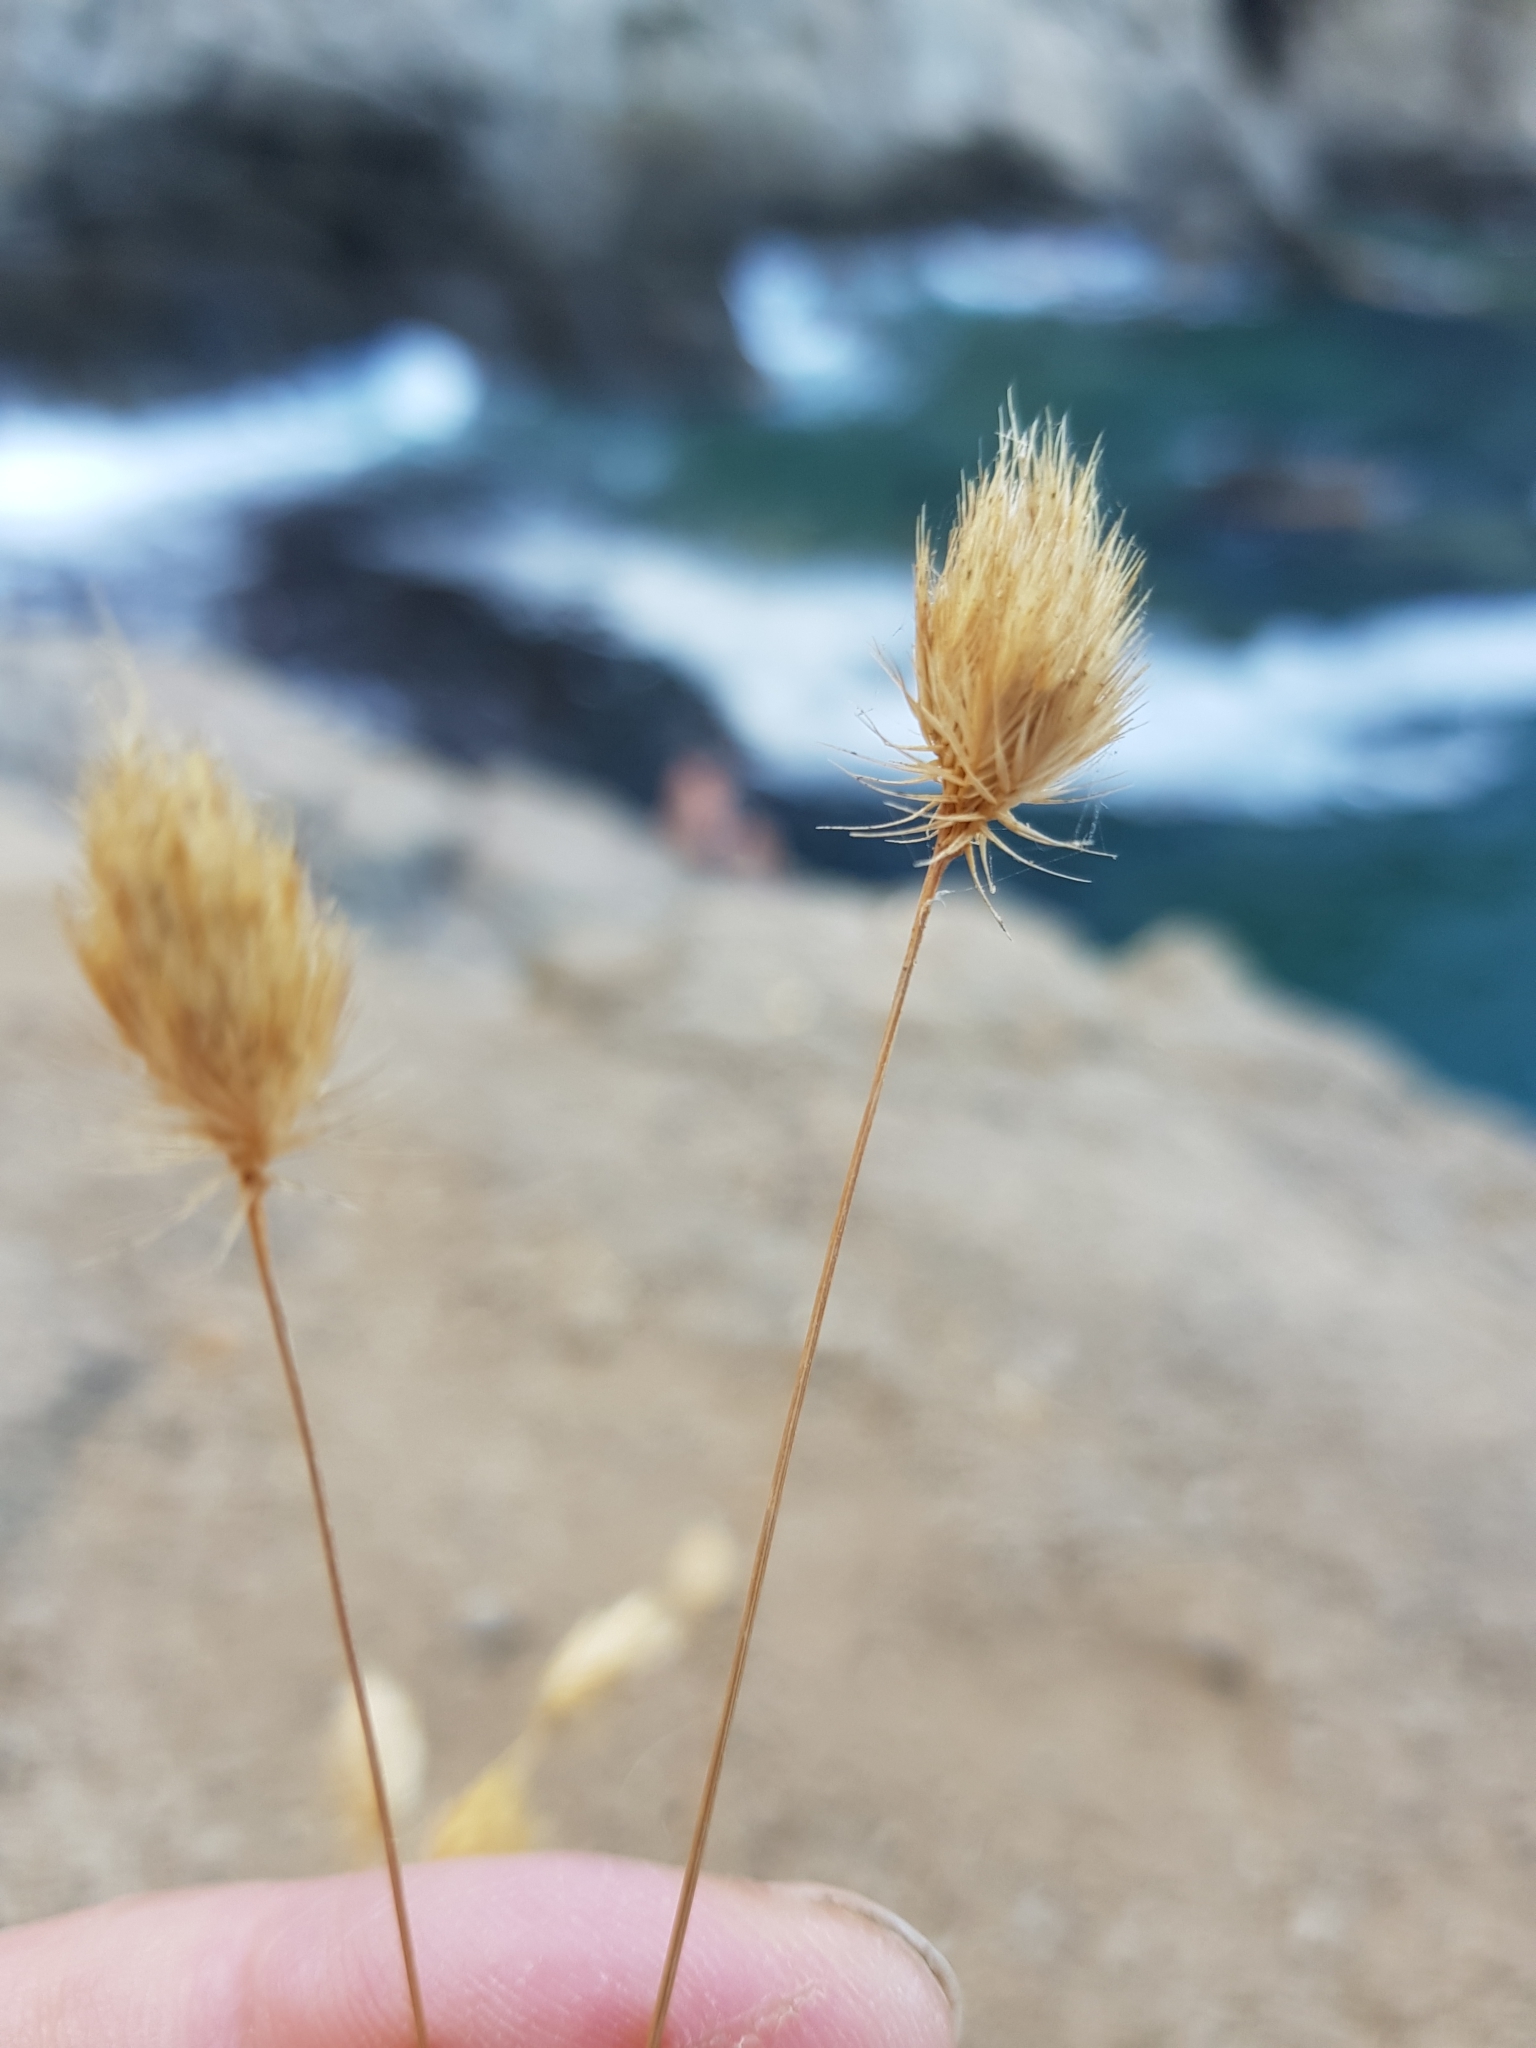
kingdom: Plantae
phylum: Tracheophyta
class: Liliopsida
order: Poales
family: Poaceae
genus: Cynosurus
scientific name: Cynosurus echinatus
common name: Rough dog's-tail
